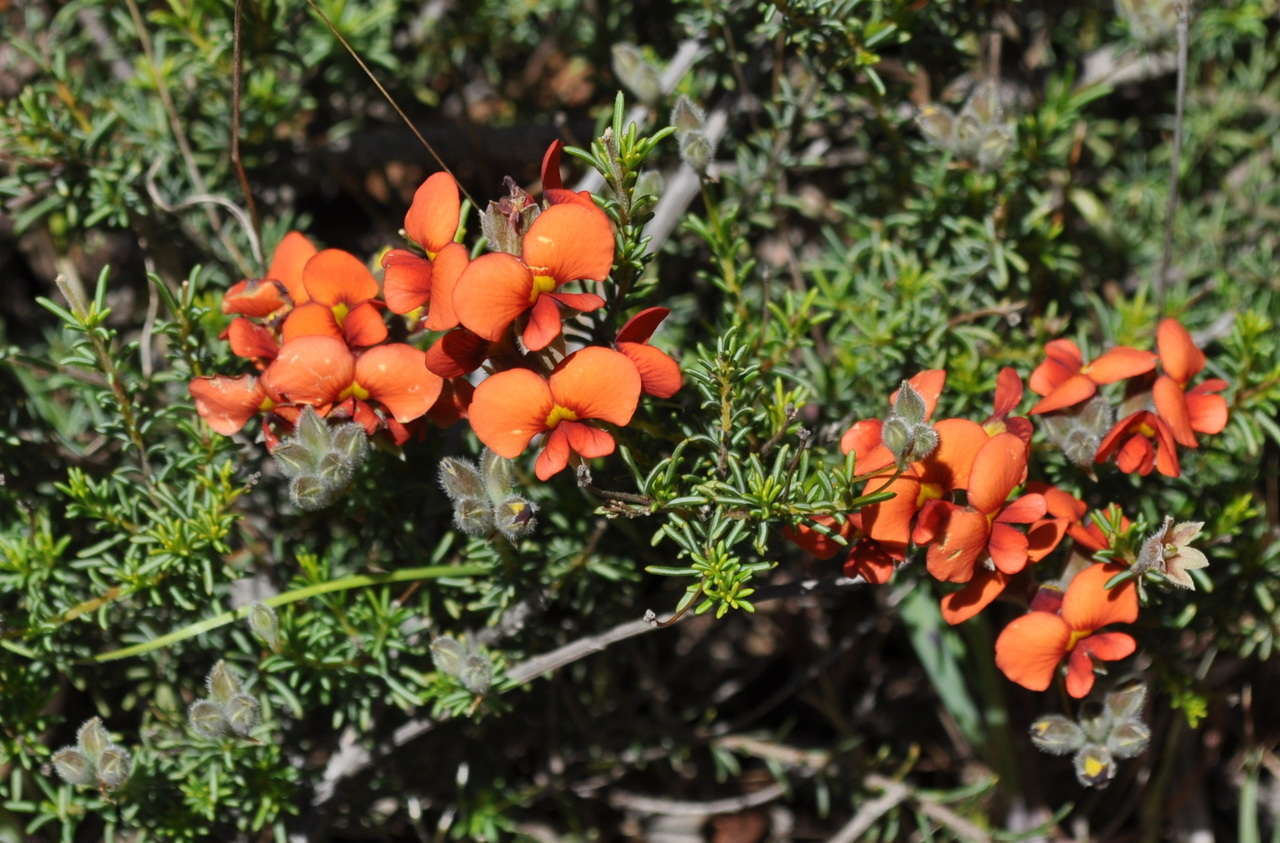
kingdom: Plantae
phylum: Tracheophyta
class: Magnoliopsida
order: Fabales
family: Fabaceae
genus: Dillwynia
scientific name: Dillwynia hispida
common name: Red parrot-pea
